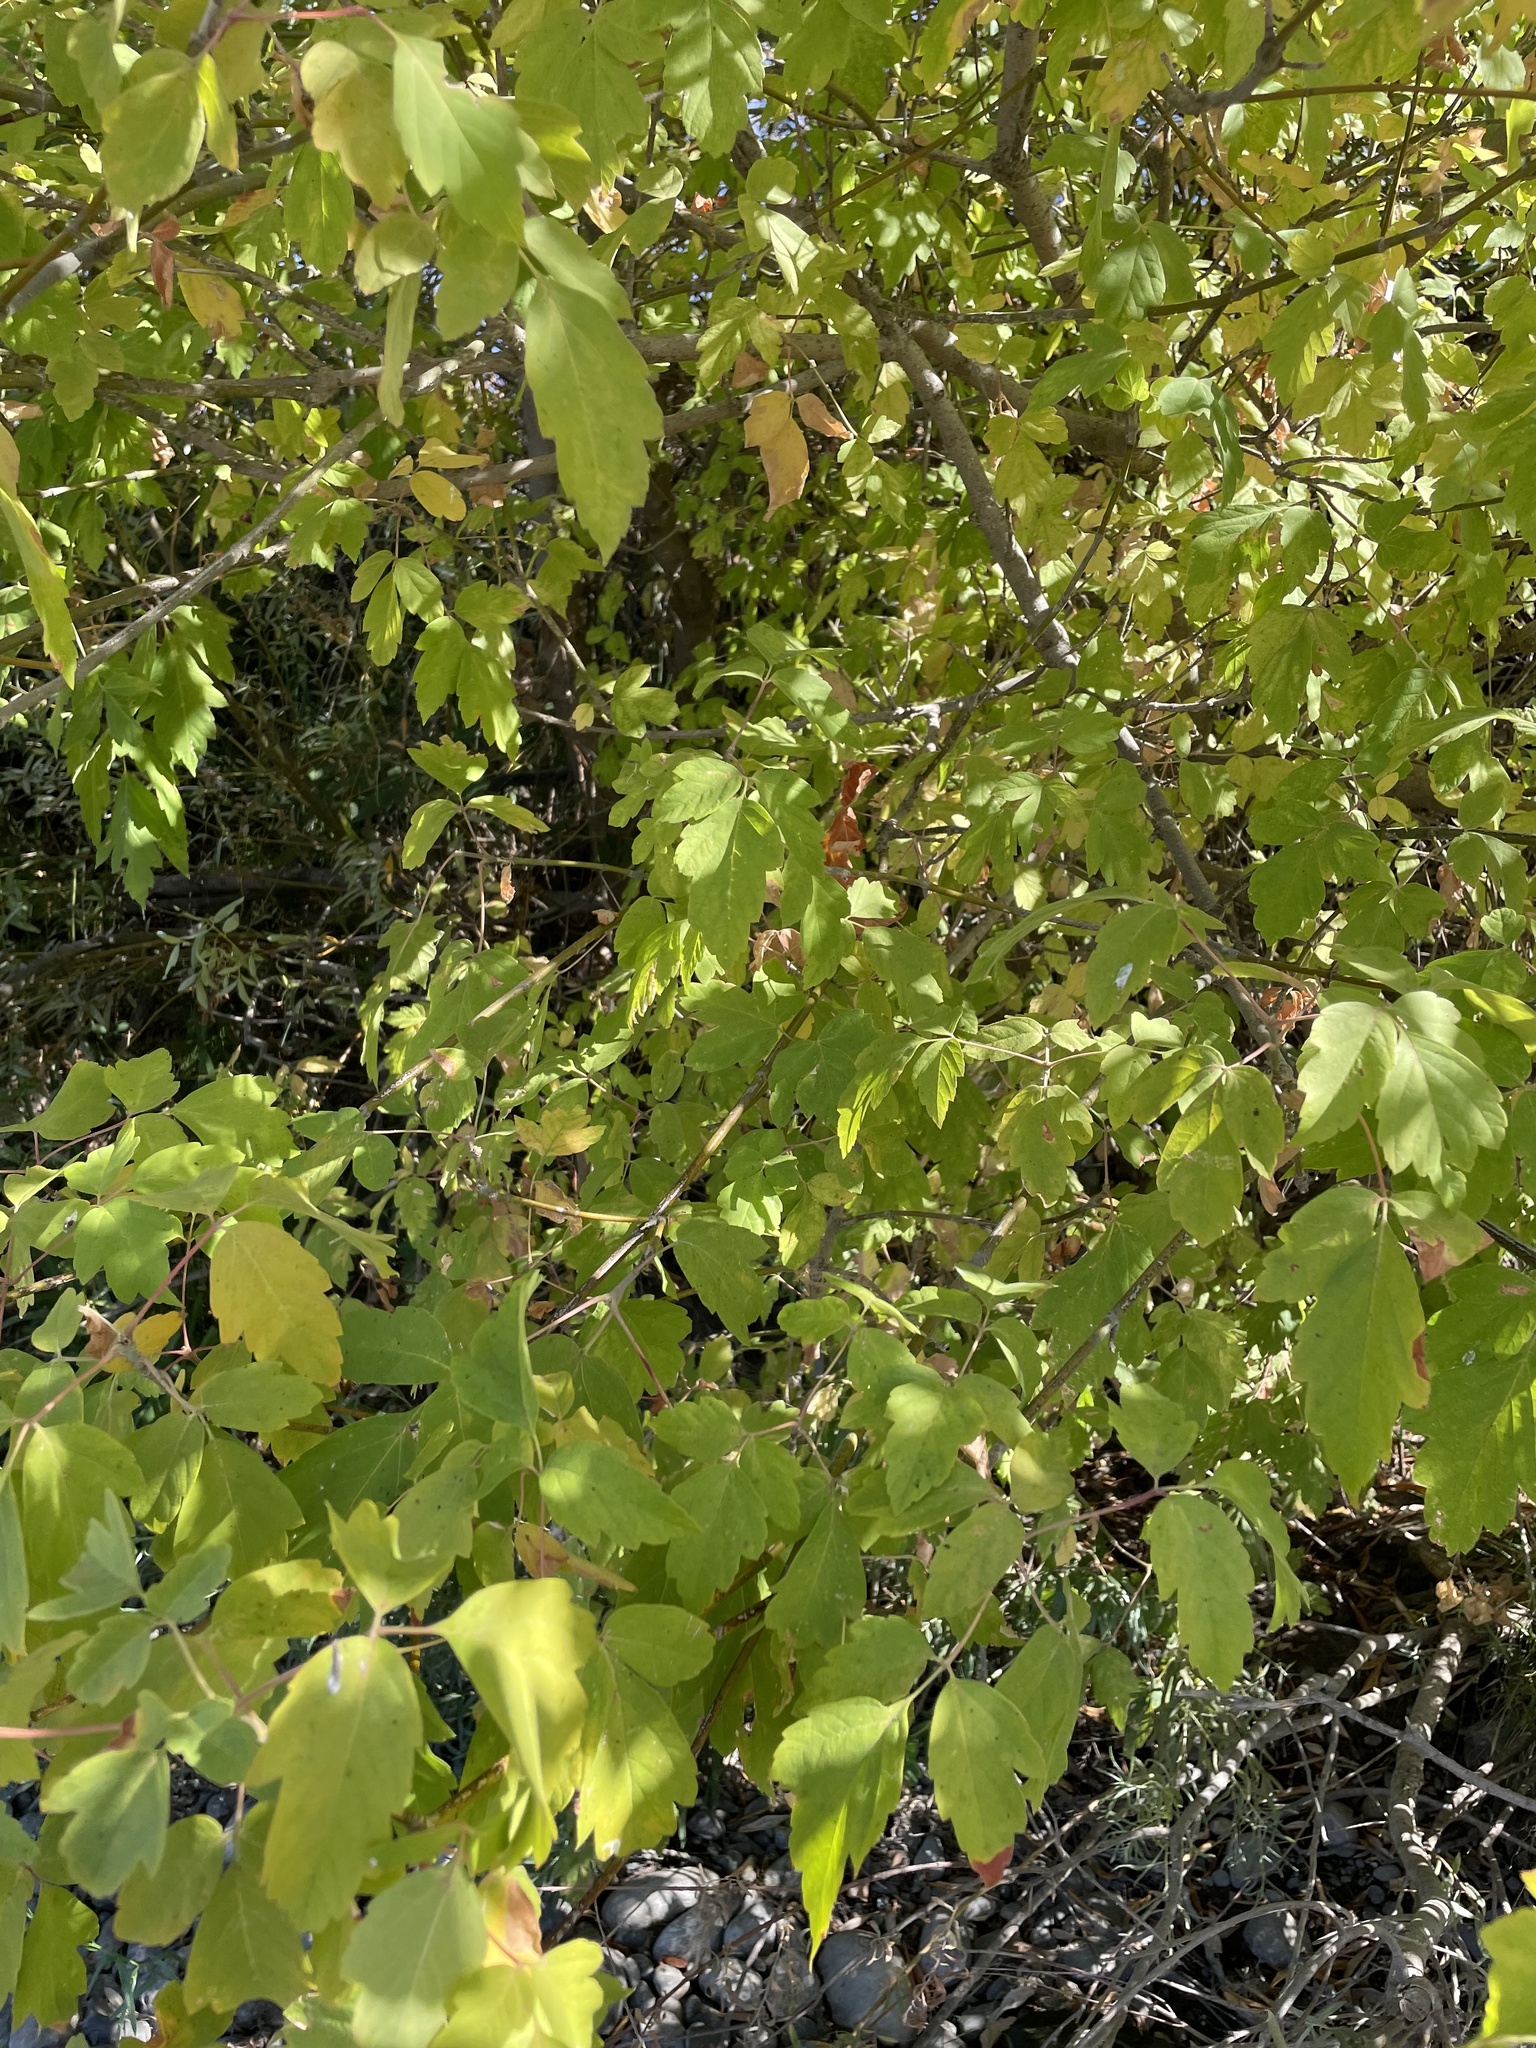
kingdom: Plantae
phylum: Tracheophyta
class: Magnoliopsida
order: Sapindales
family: Sapindaceae
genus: Acer
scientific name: Acer negundo
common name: Ashleaf maple
